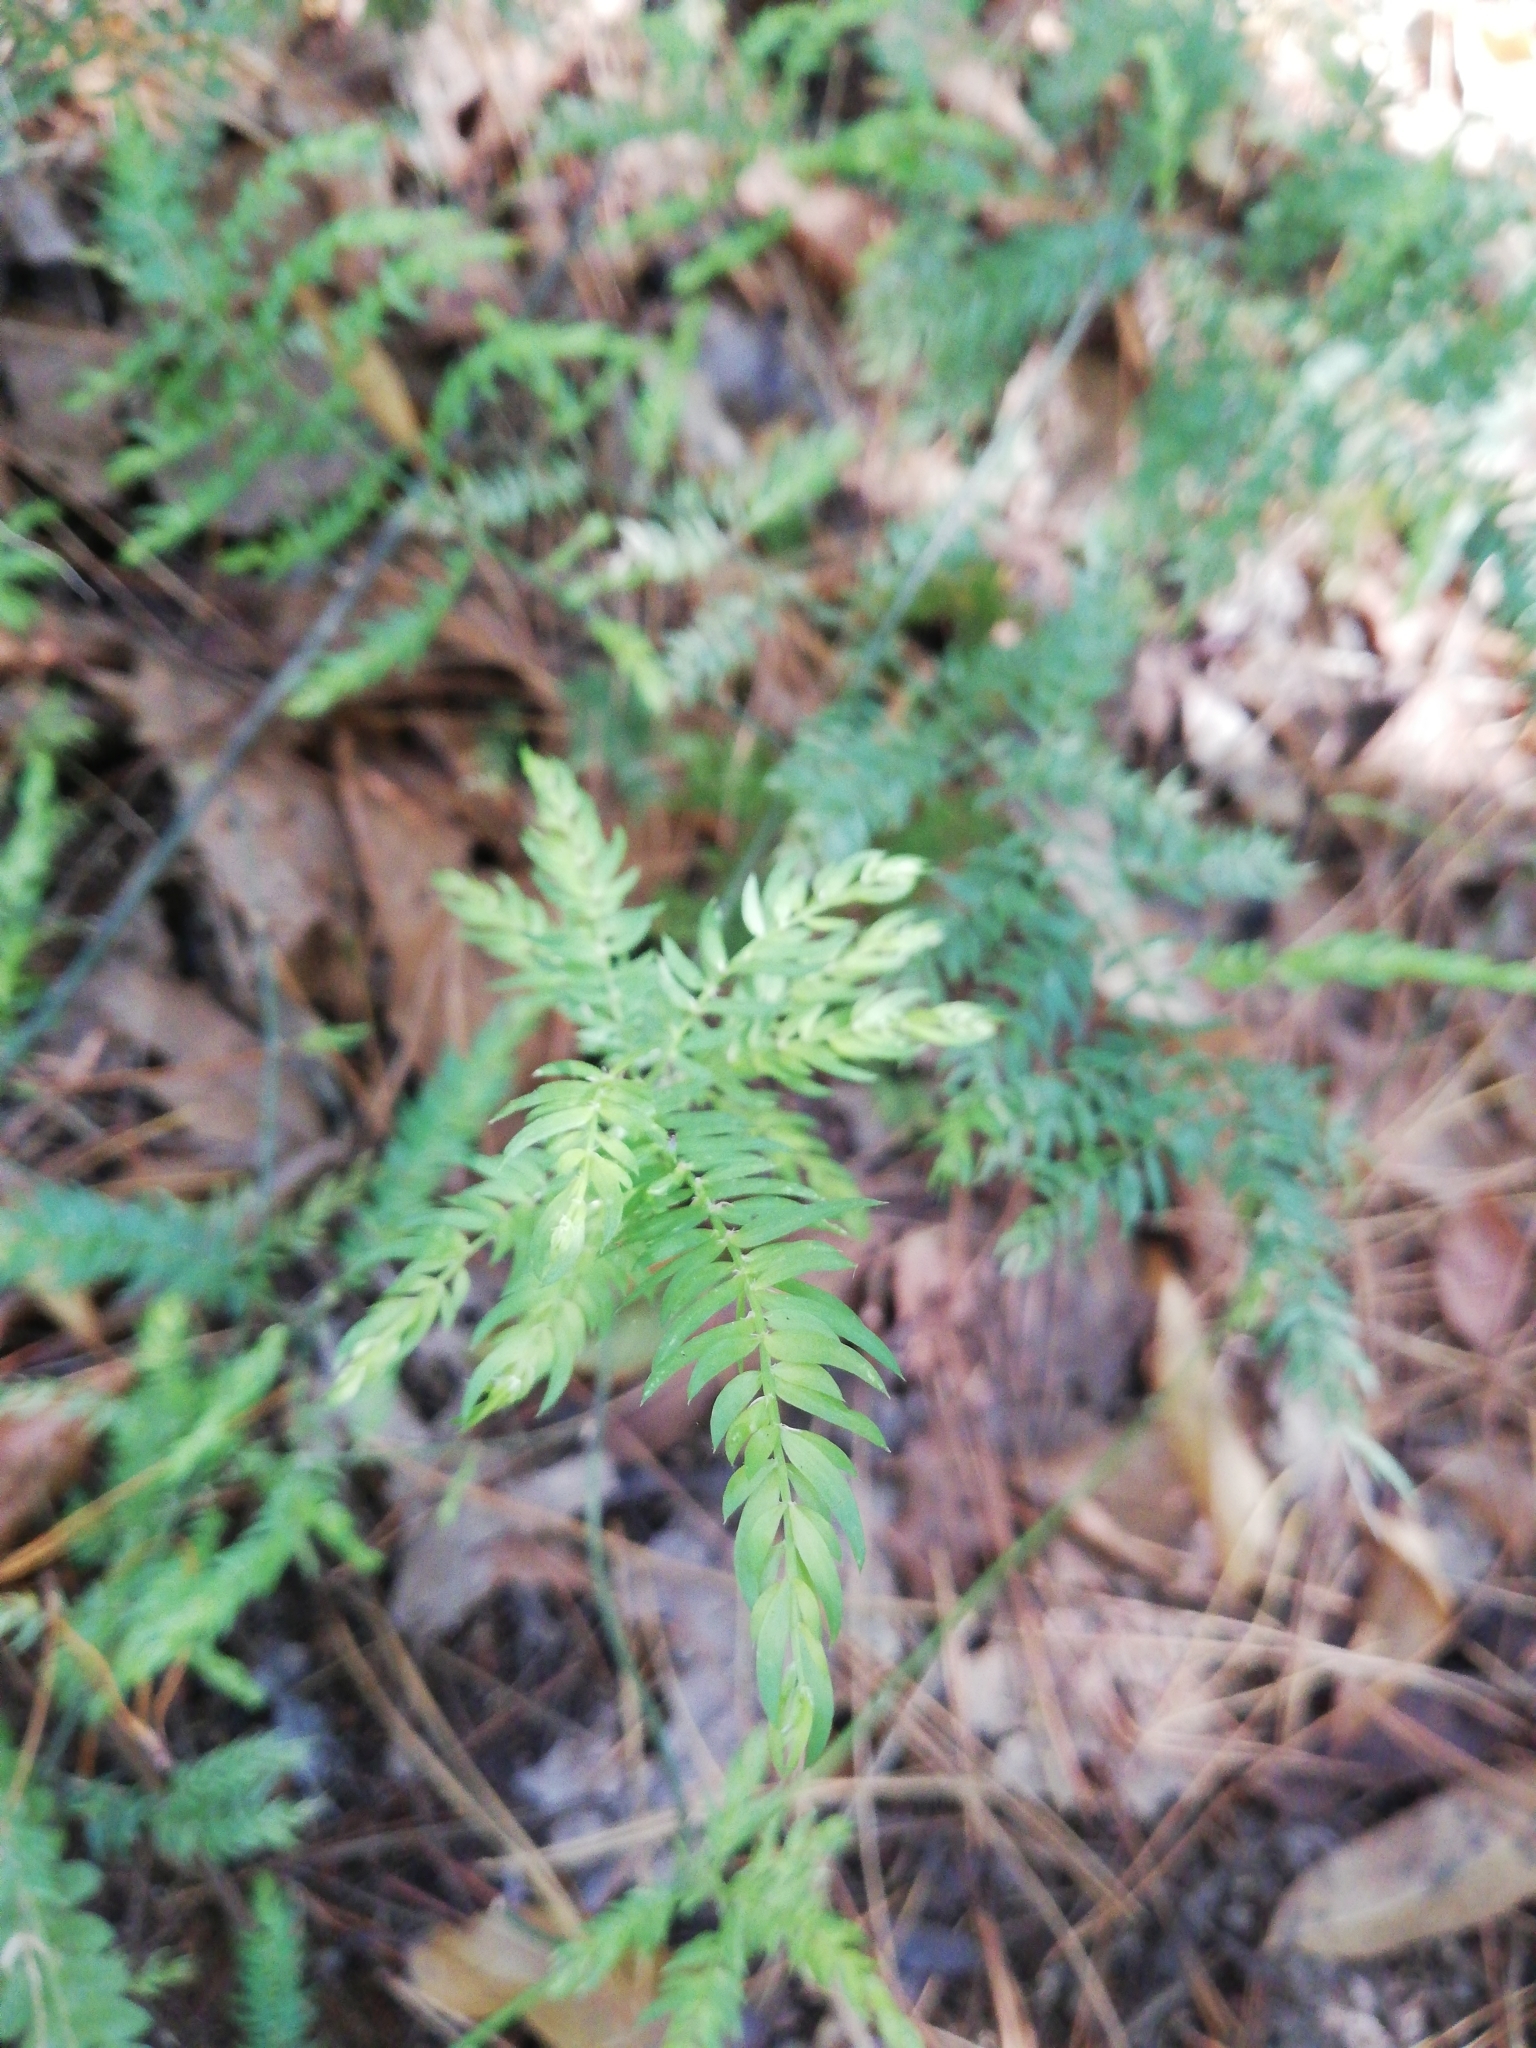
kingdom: Plantae
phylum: Tracheophyta
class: Liliopsida
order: Asparagales
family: Asparagaceae
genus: Asparagus
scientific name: Asparagus scandens
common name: Asparagus-fern
